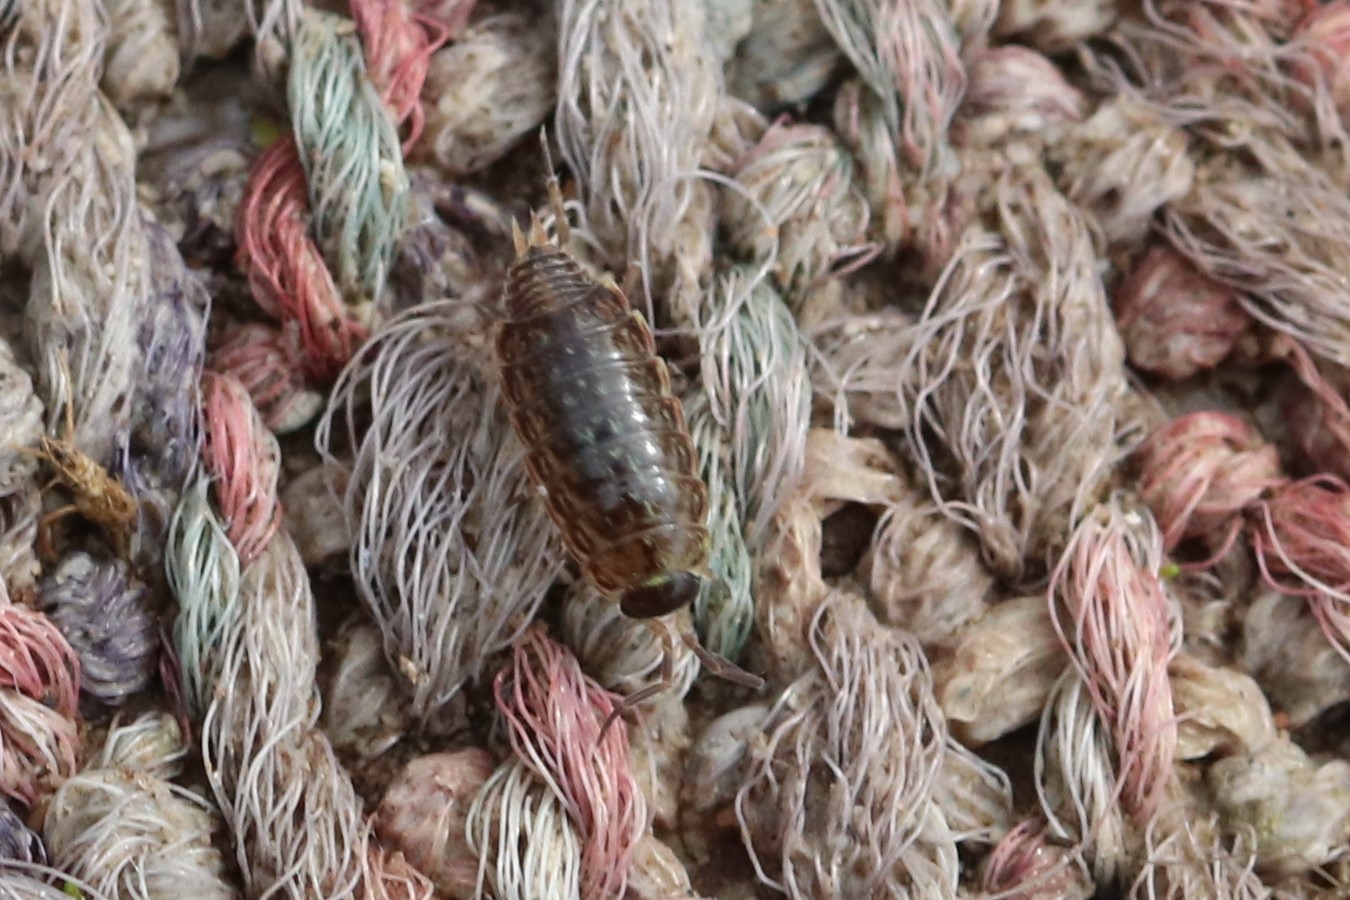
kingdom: Animalia
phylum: Arthropoda
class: Malacostraca
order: Isopoda
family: Philosciidae
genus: Philoscia
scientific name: Philoscia muscorum
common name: Common striped woodlouse
